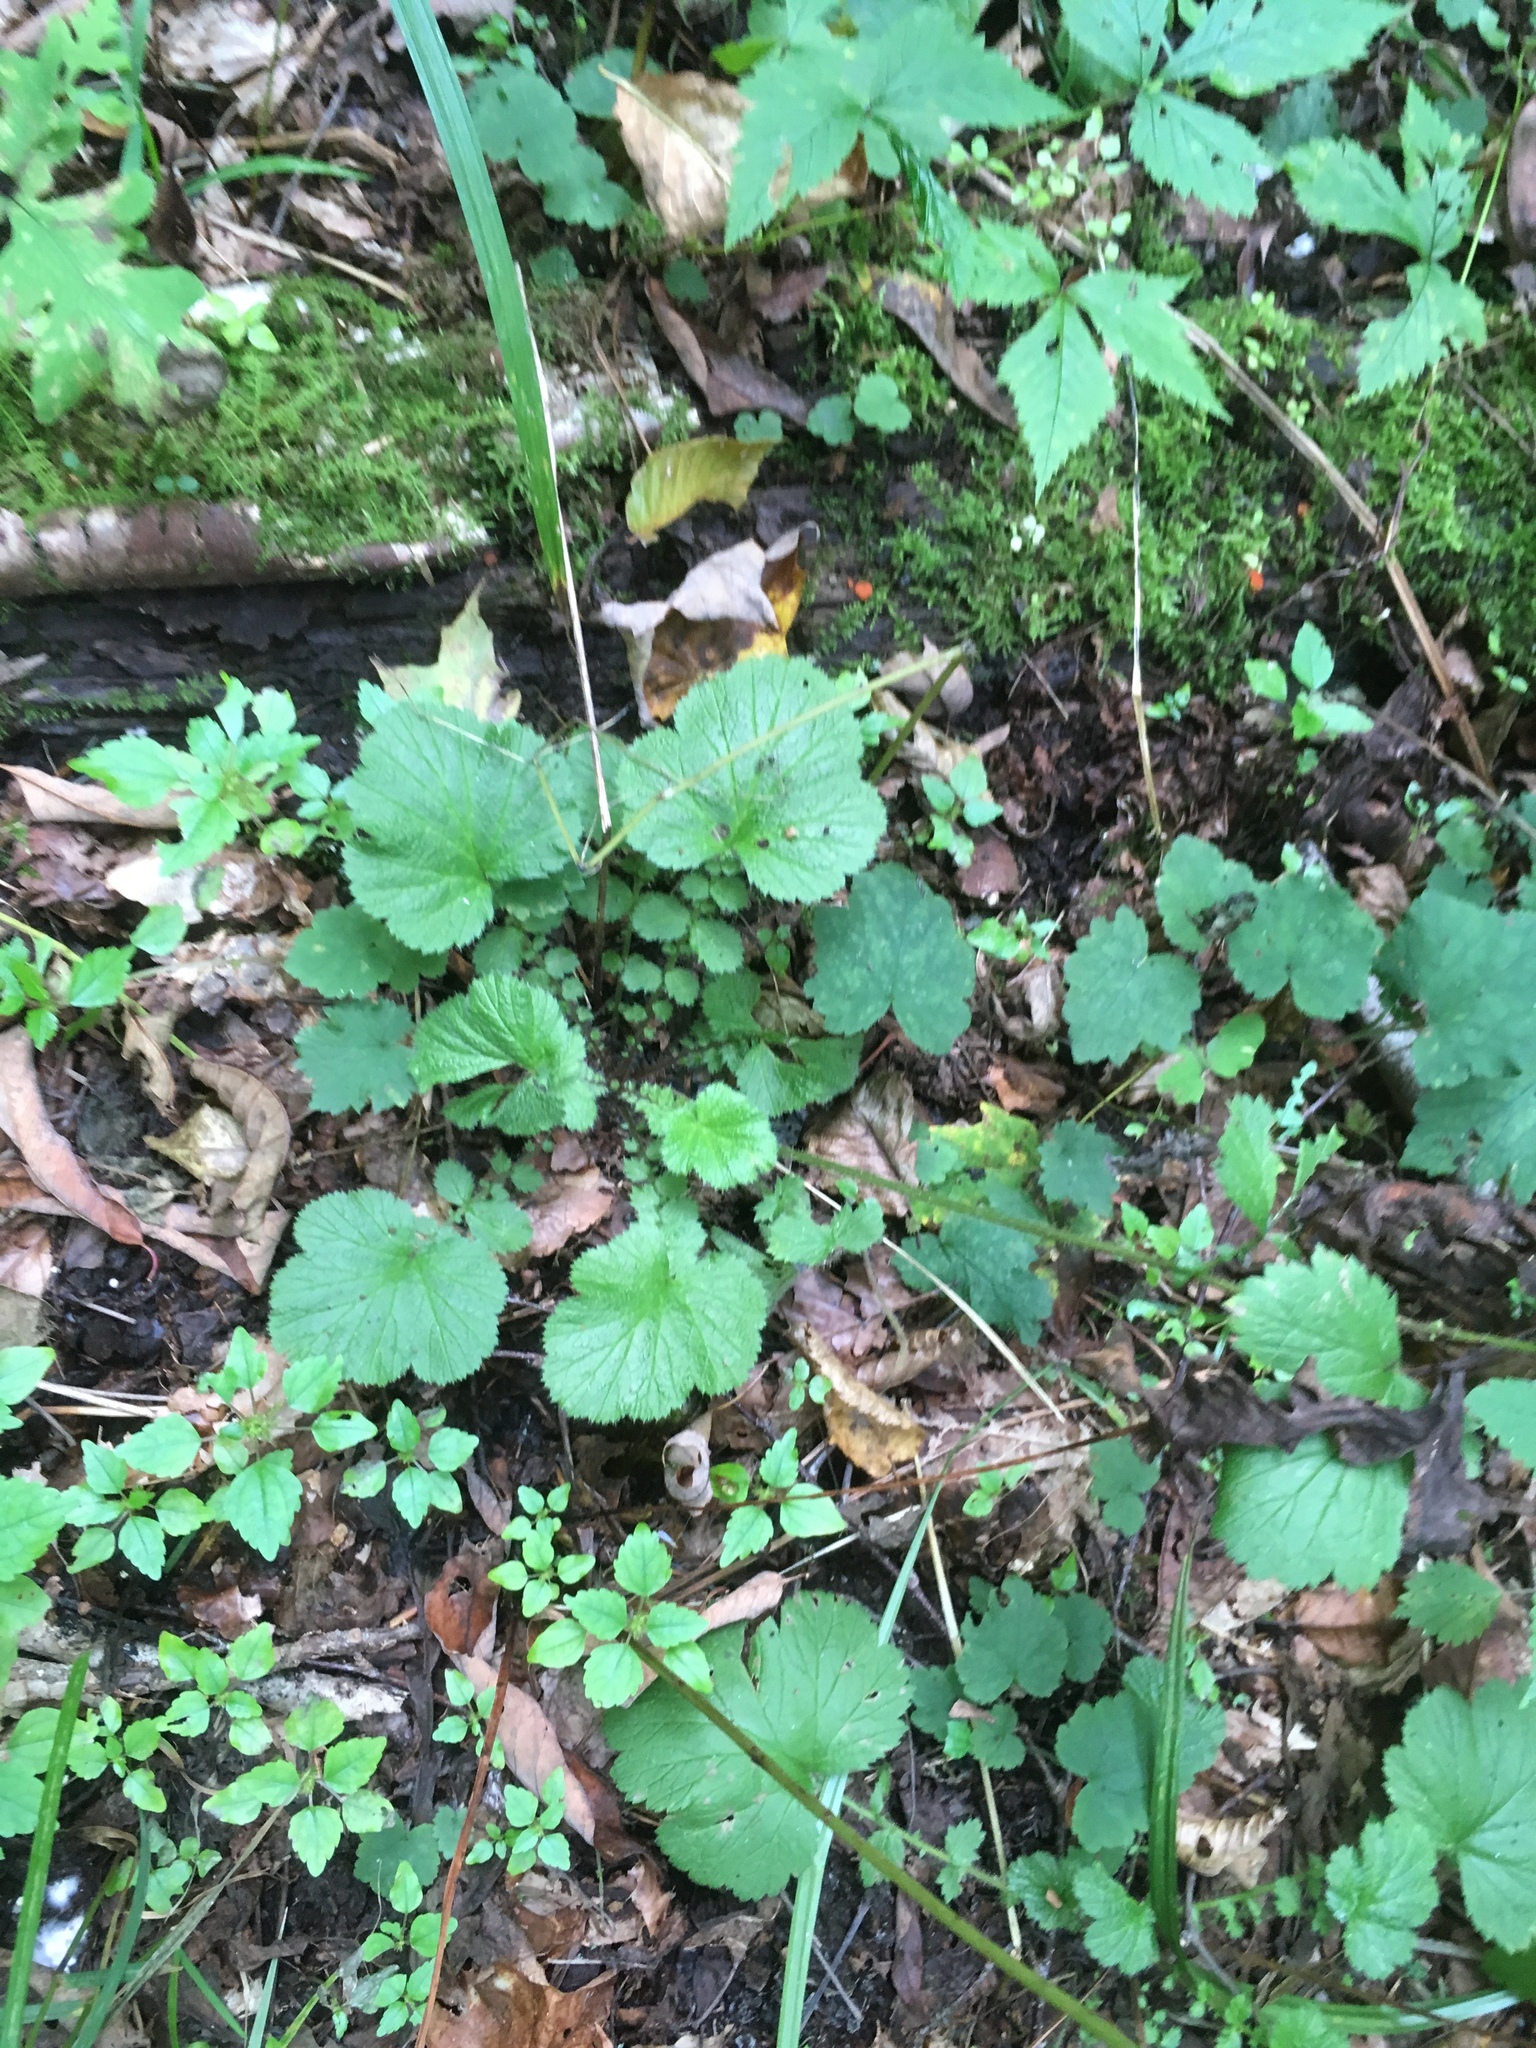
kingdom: Plantae
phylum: Tracheophyta
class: Magnoliopsida
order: Rosales
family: Urticaceae
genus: Pilea
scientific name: Pilea pumila
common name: Clearweed
